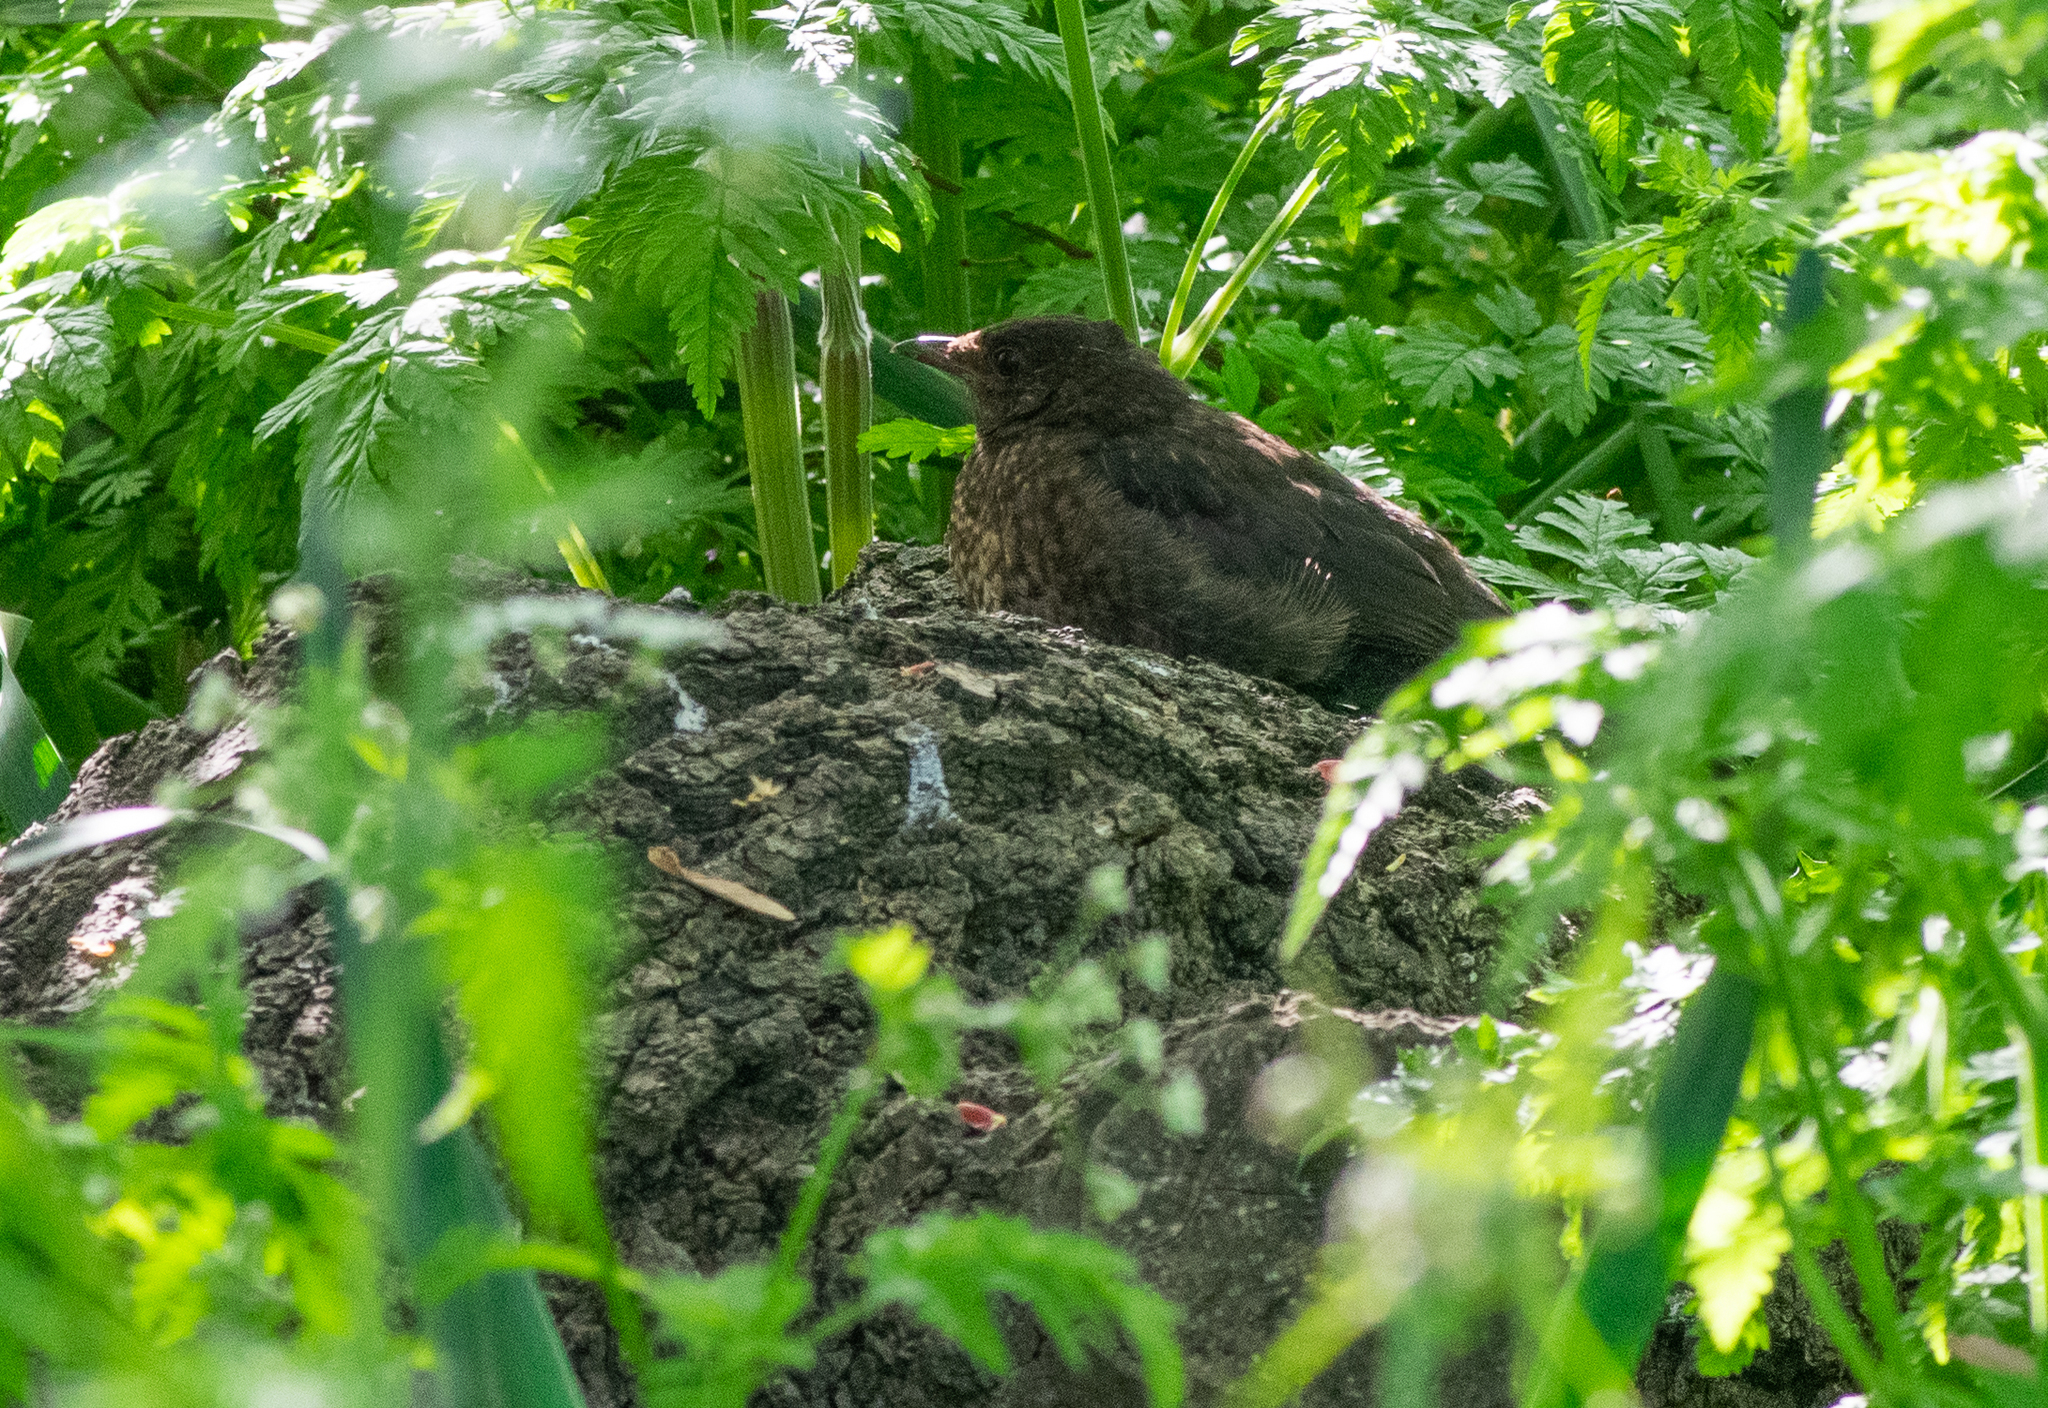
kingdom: Animalia
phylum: Chordata
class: Aves
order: Passeriformes
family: Turdidae
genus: Turdus
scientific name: Turdus merula
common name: Common blackbird
